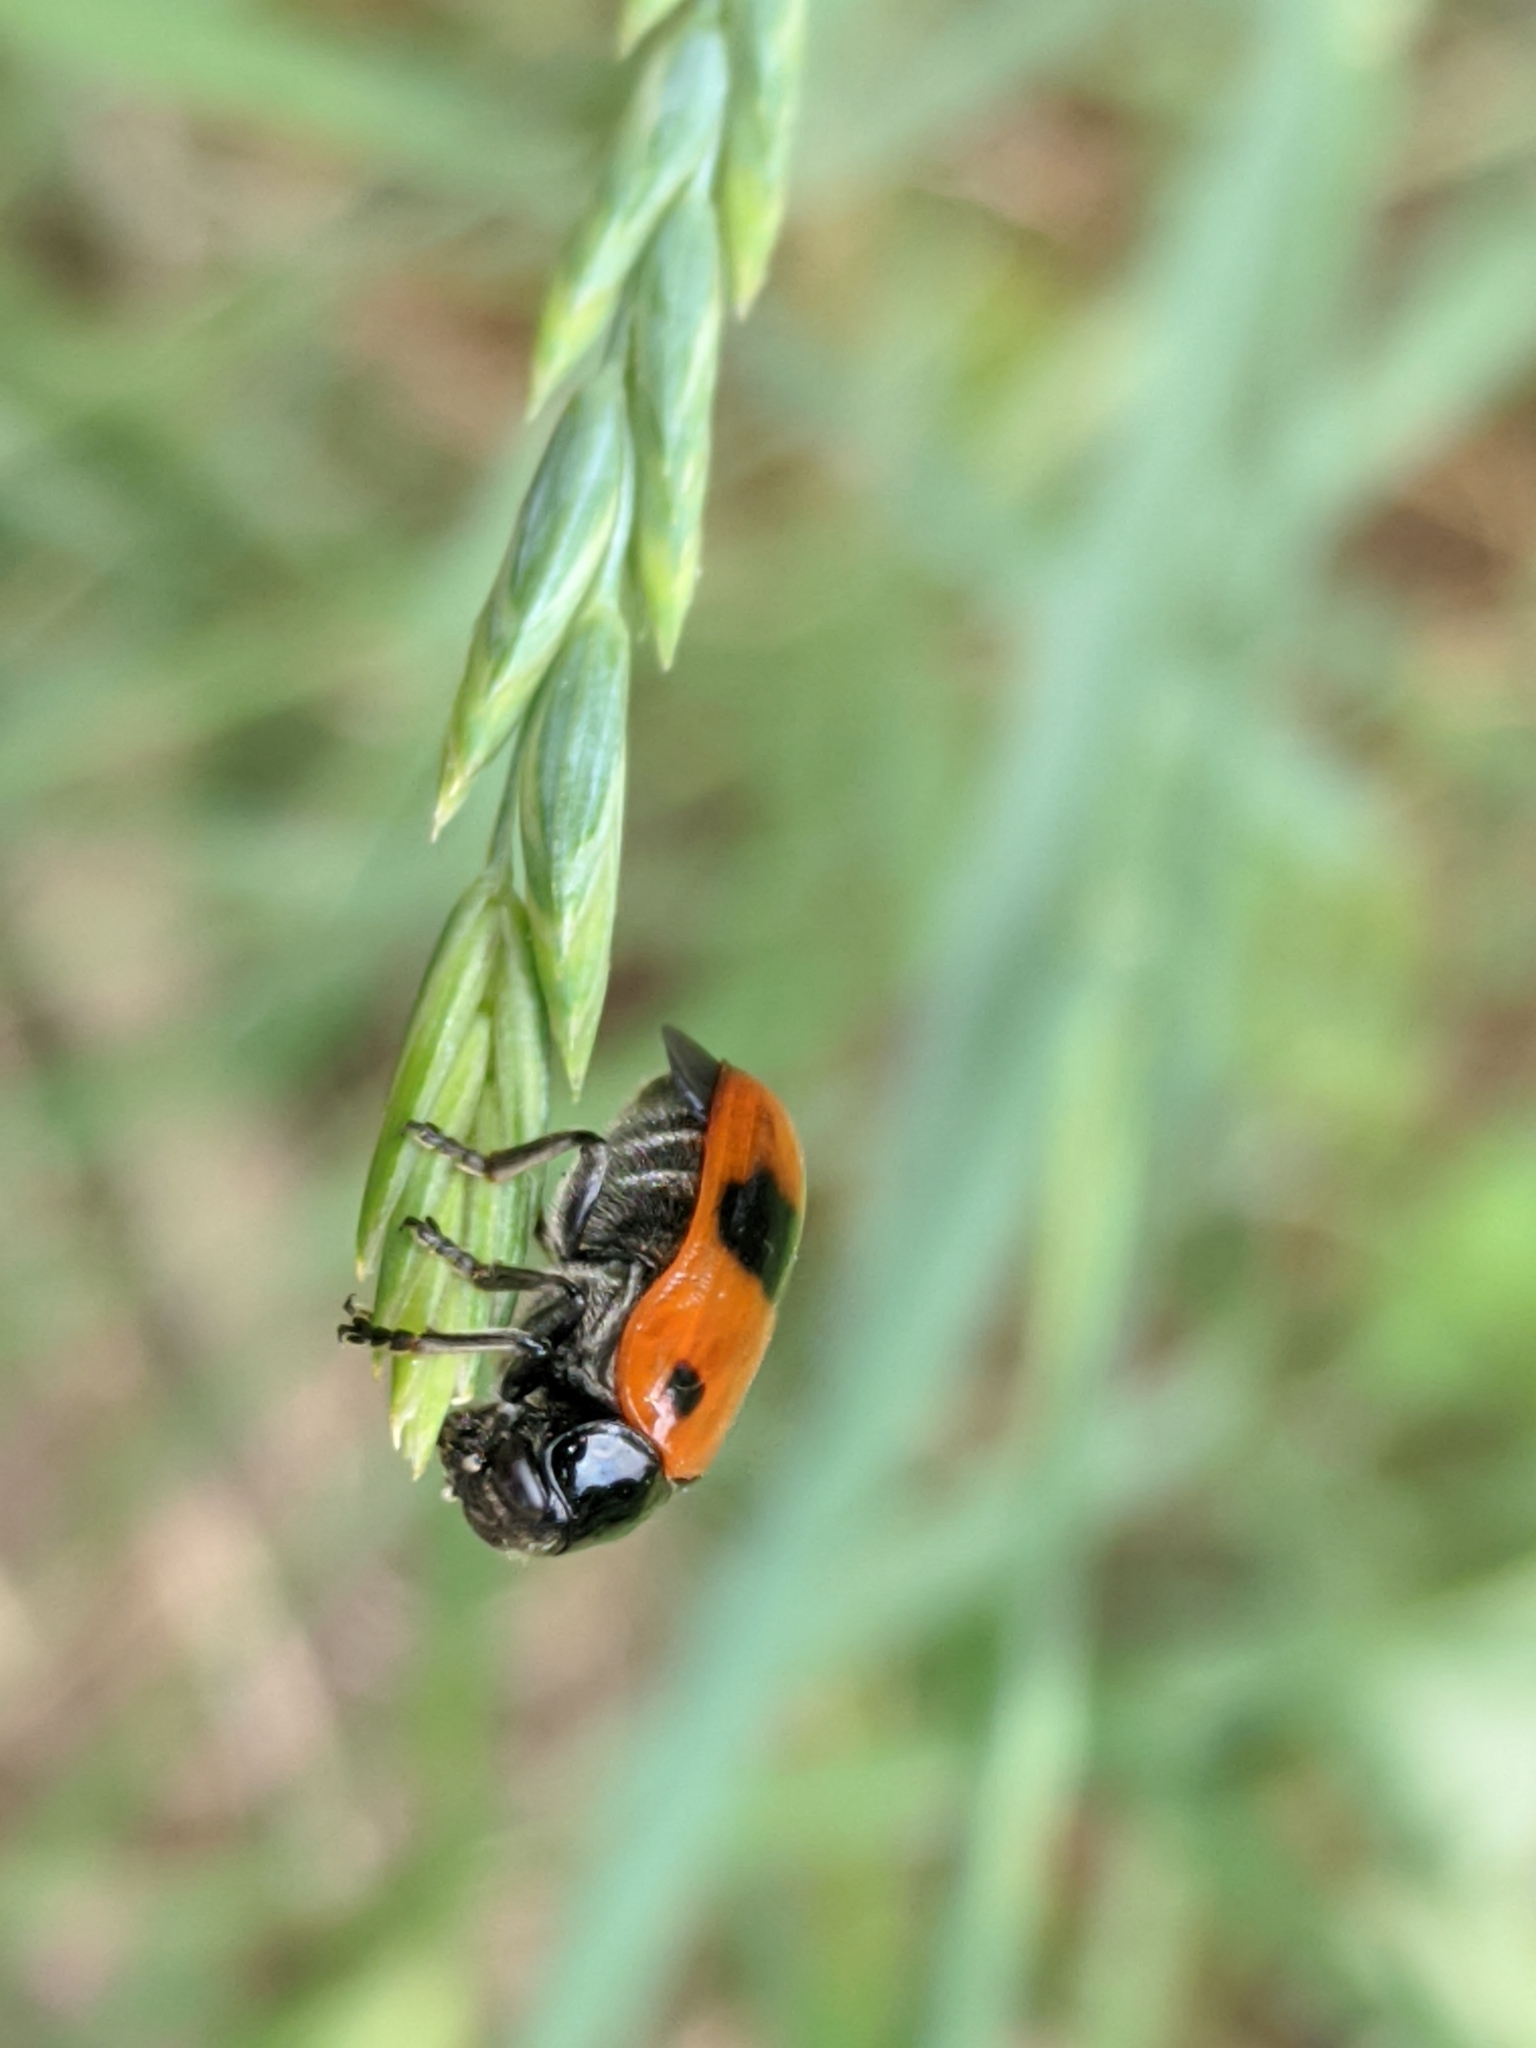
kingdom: Animalia
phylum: Arthropoda
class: Insecta
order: Coleoptera
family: Chrysomelidae
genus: Clytra
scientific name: Clytra laeviuscula
